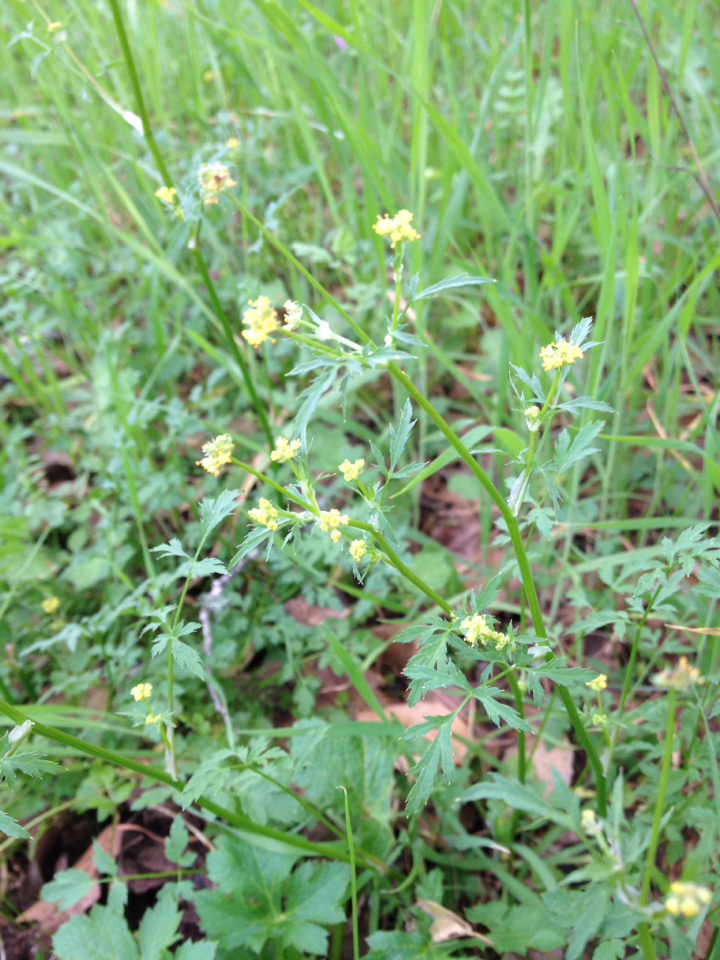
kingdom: Plantae
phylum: Tracheophyta
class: Magnoliopsida
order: Apiales
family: Apiaceae
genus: Sanicula
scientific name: Sanicula bipinnata
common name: Poison sanicle
